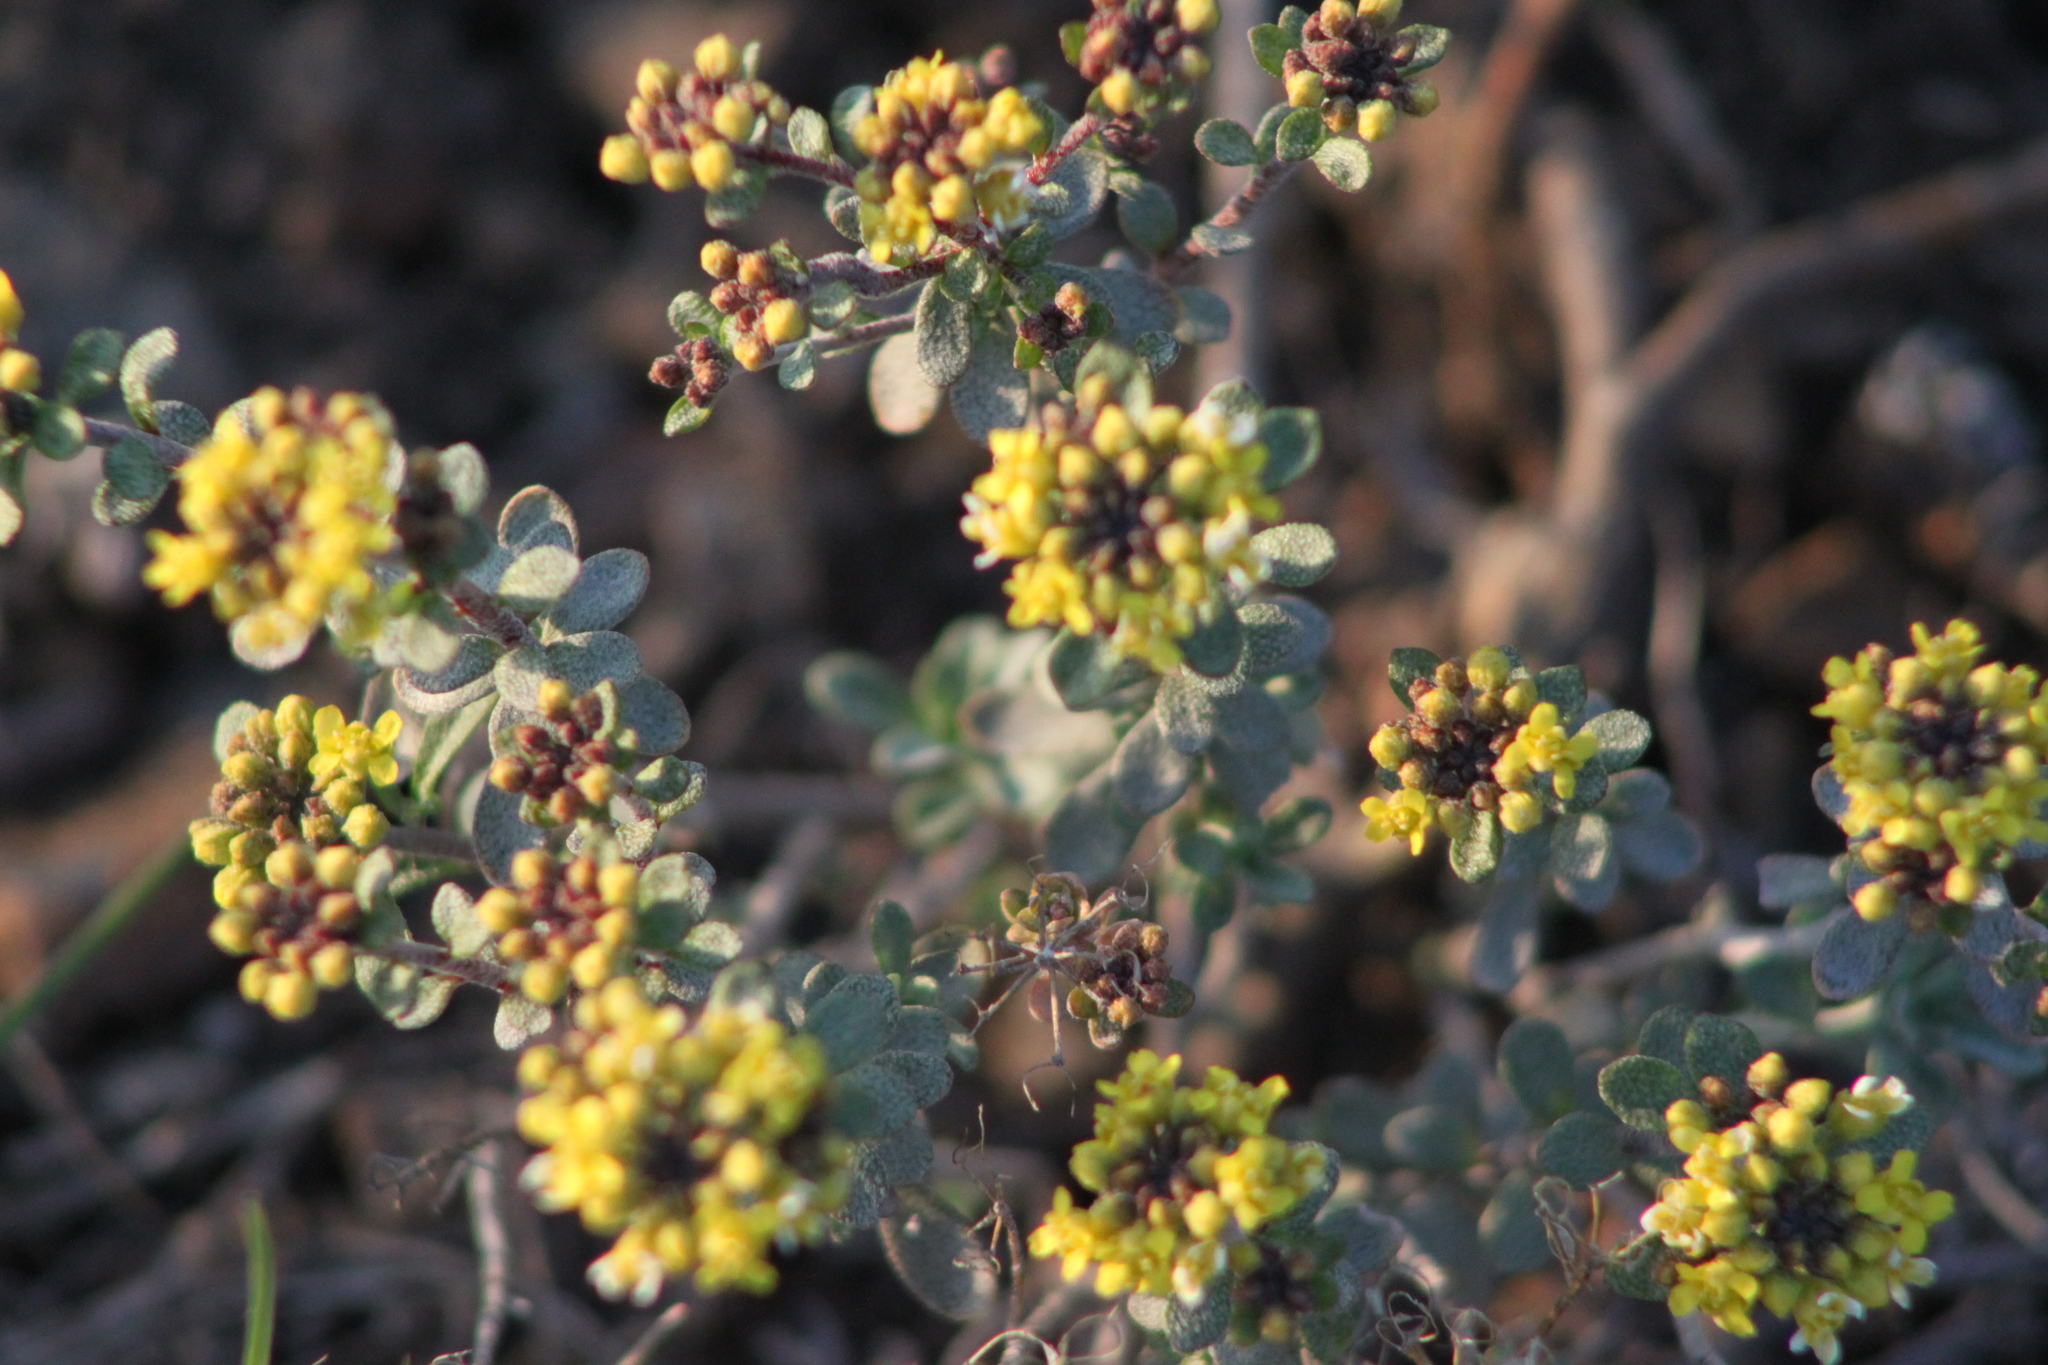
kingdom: Plantae
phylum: Tracheophyta
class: Magnoliopsida
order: Brassicales
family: Brassicaceae
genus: Odontarrhena
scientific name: Odontarrhena tortuosa
